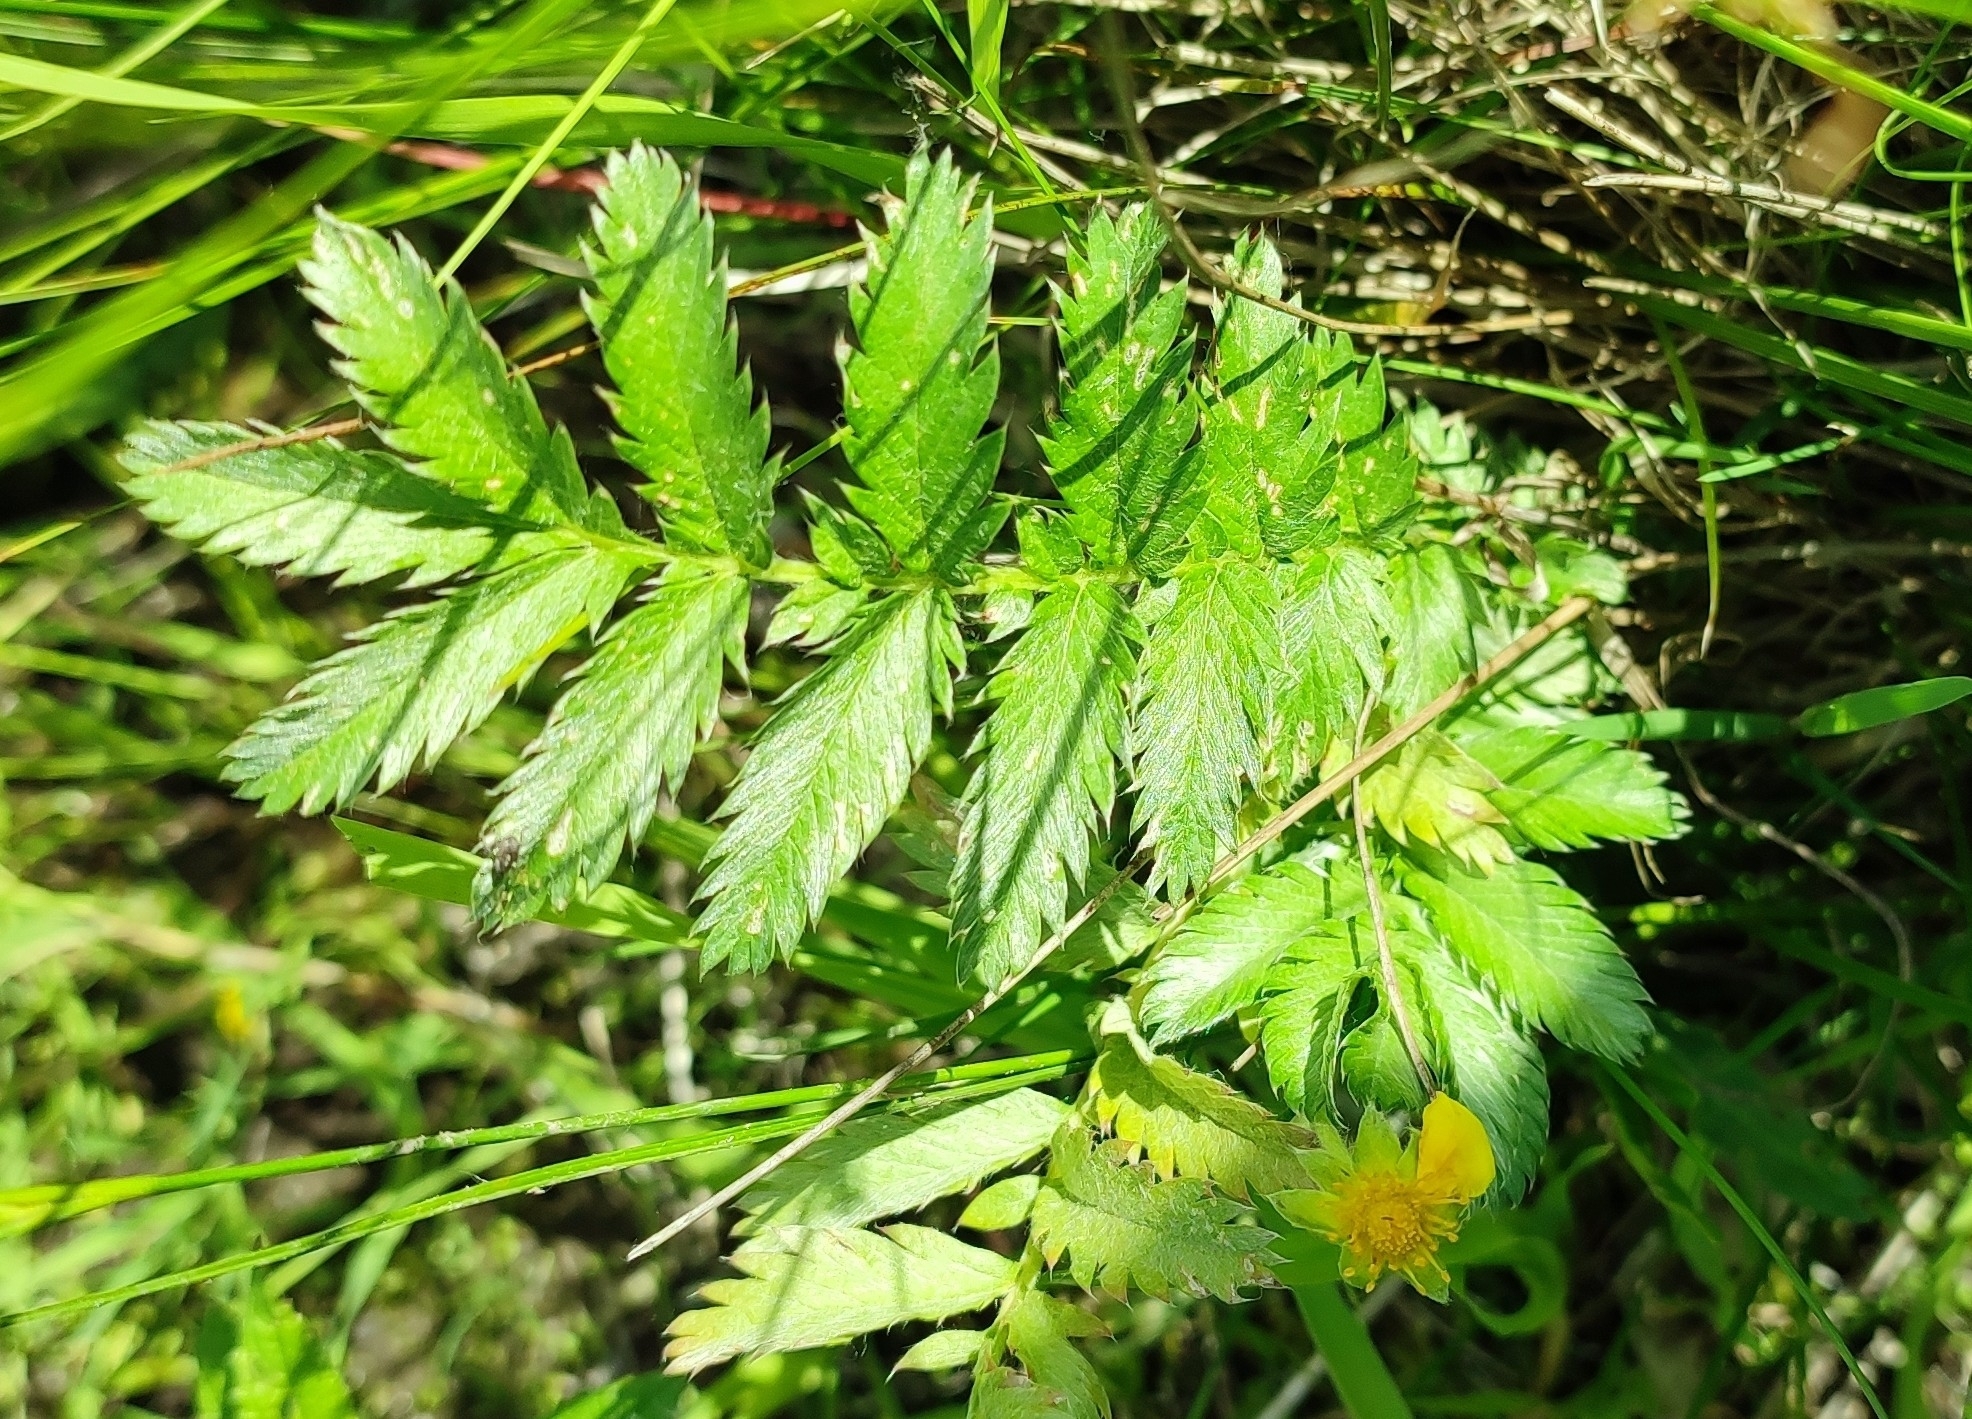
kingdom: Plantae
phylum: Tracheophyta
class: Magnoliopsida
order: Rosales
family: Rosaceae
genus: Argentina
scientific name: Argentina anserina
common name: Common silverweed
